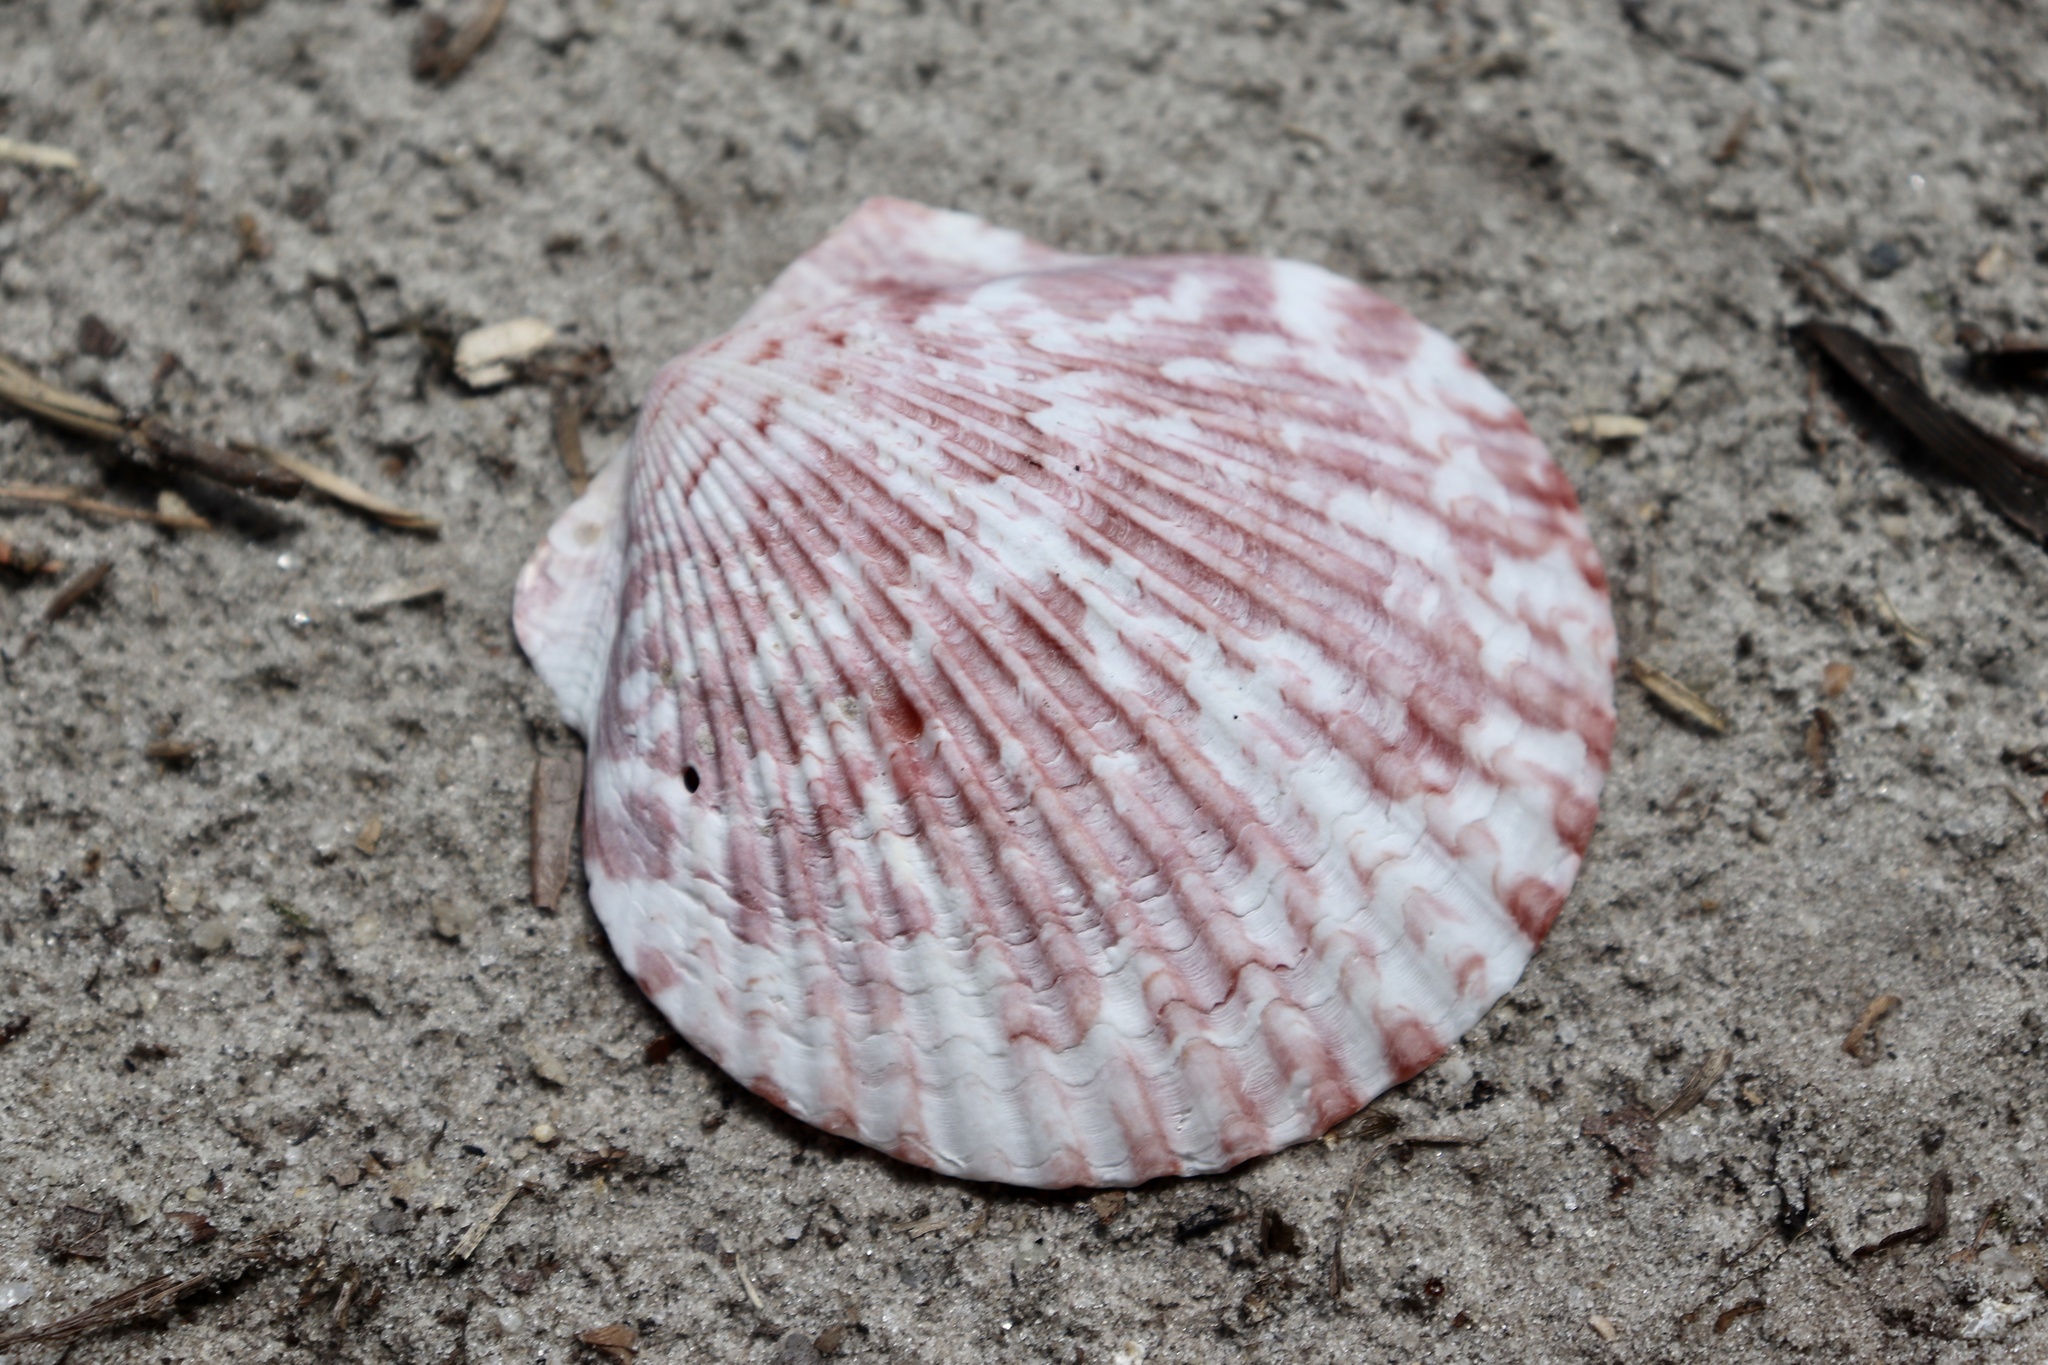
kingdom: Animalia
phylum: Mollusca
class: Bivalvia
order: Pectinida
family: Pectinidae
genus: Argopecten
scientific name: Argopecten gibbus
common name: Atlantic calico scallop
